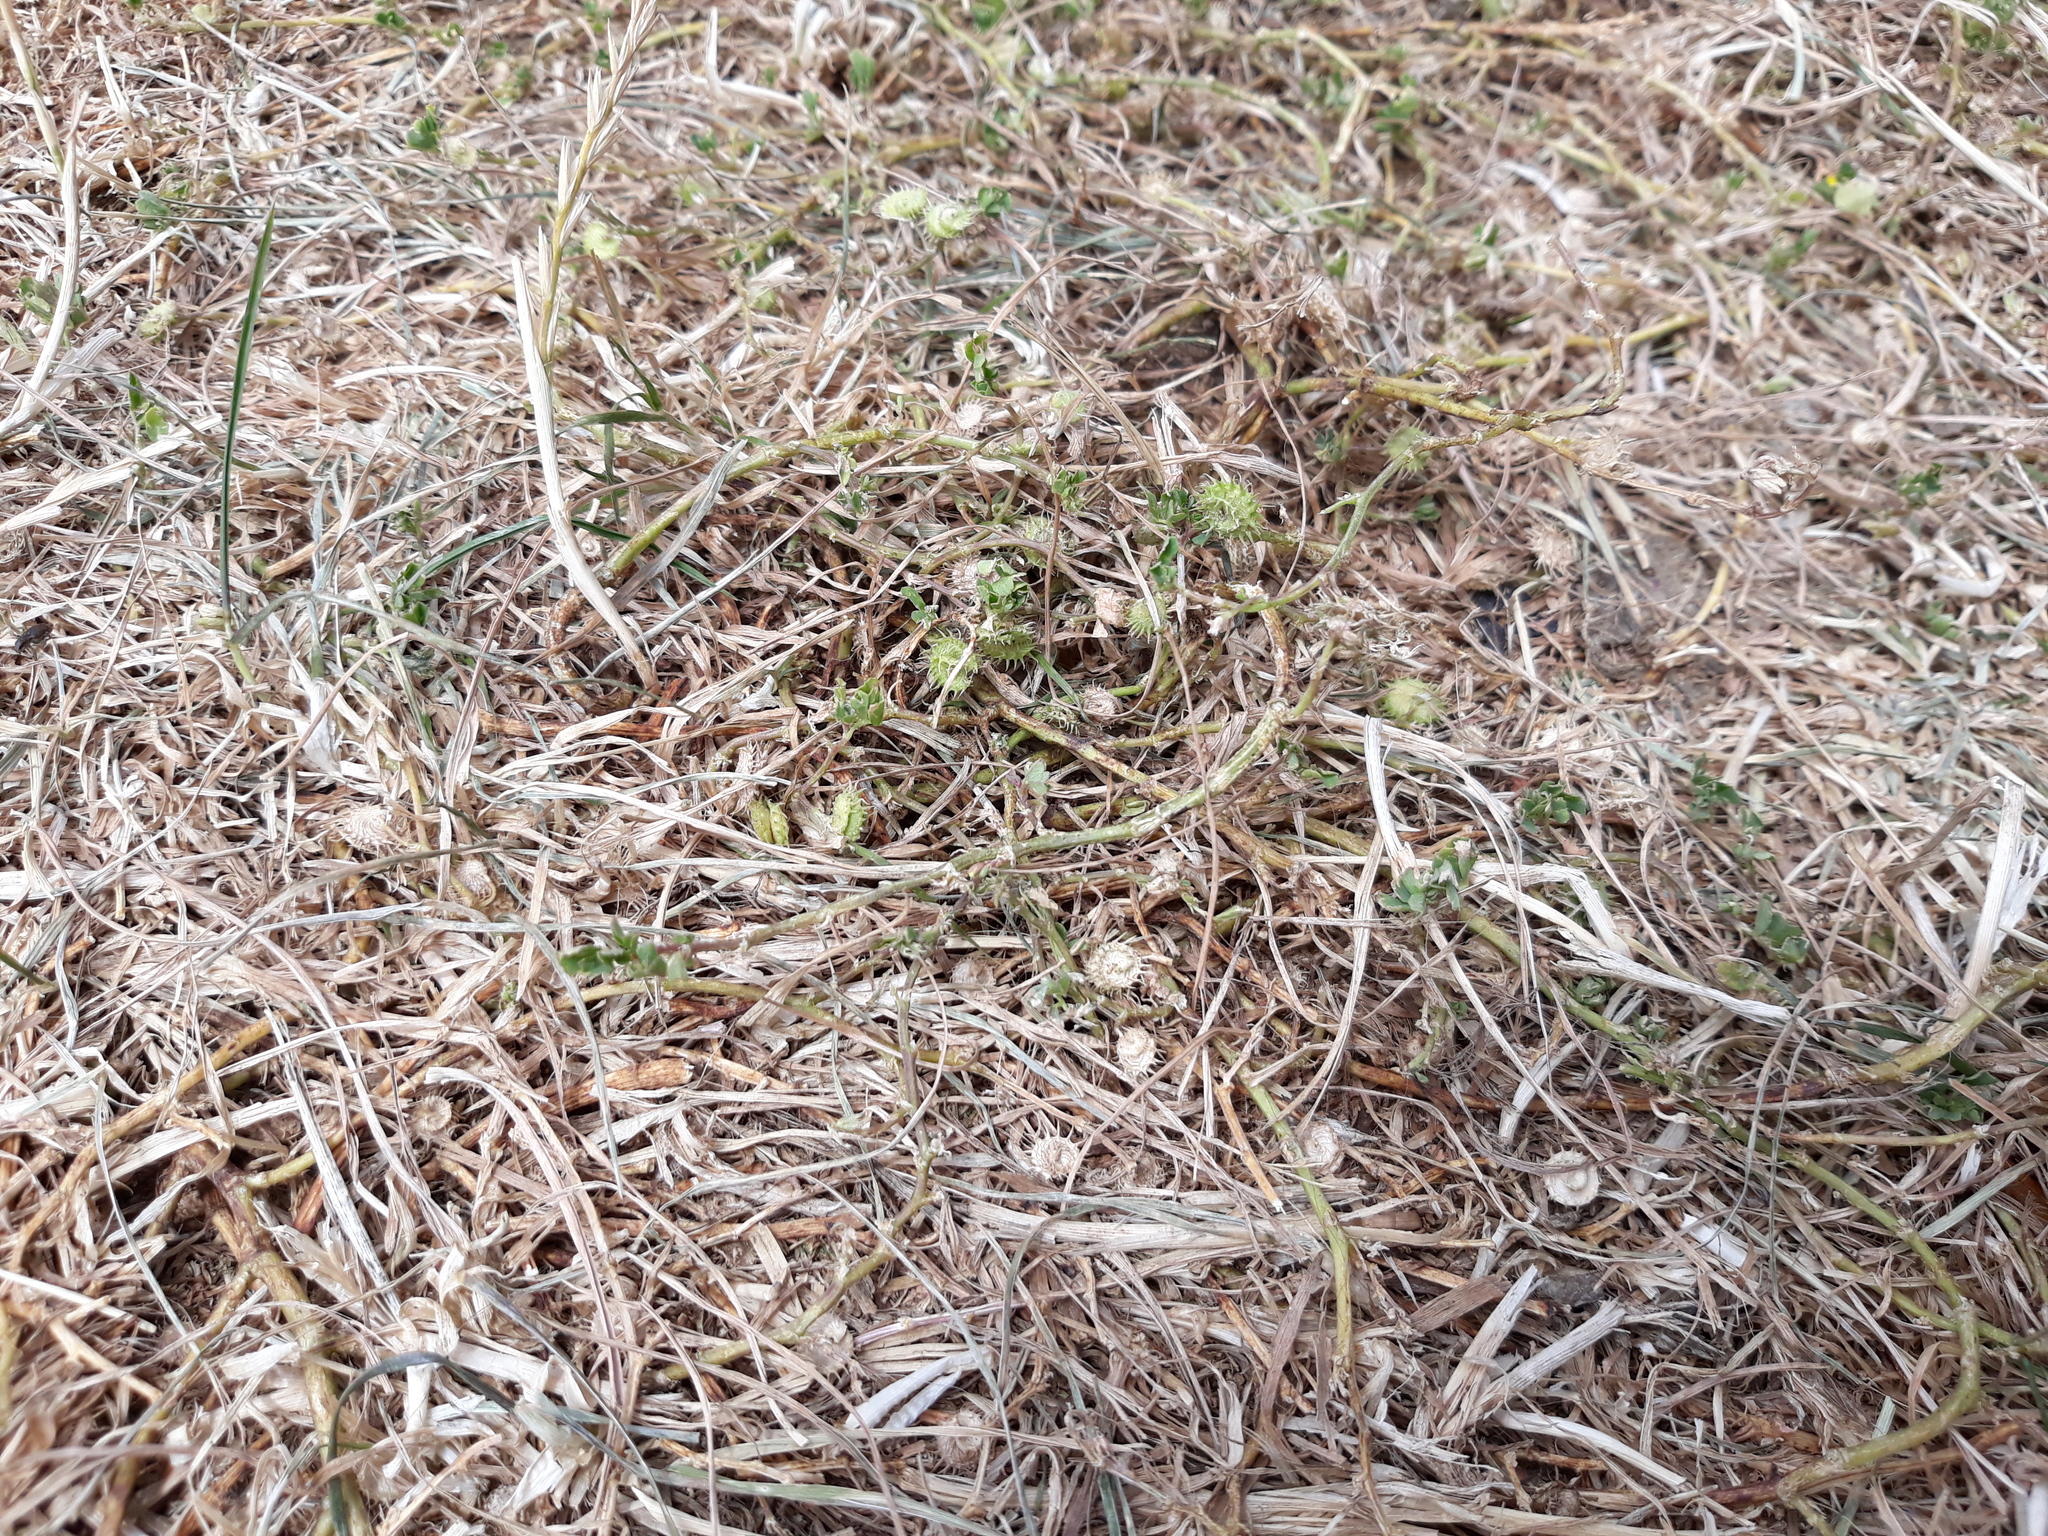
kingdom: Plantae
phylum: Tracheophyta
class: Magnoliopsida
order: Fabales
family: Fabaceae
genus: Medicago
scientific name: Medicago polymorpha
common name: Burclover
